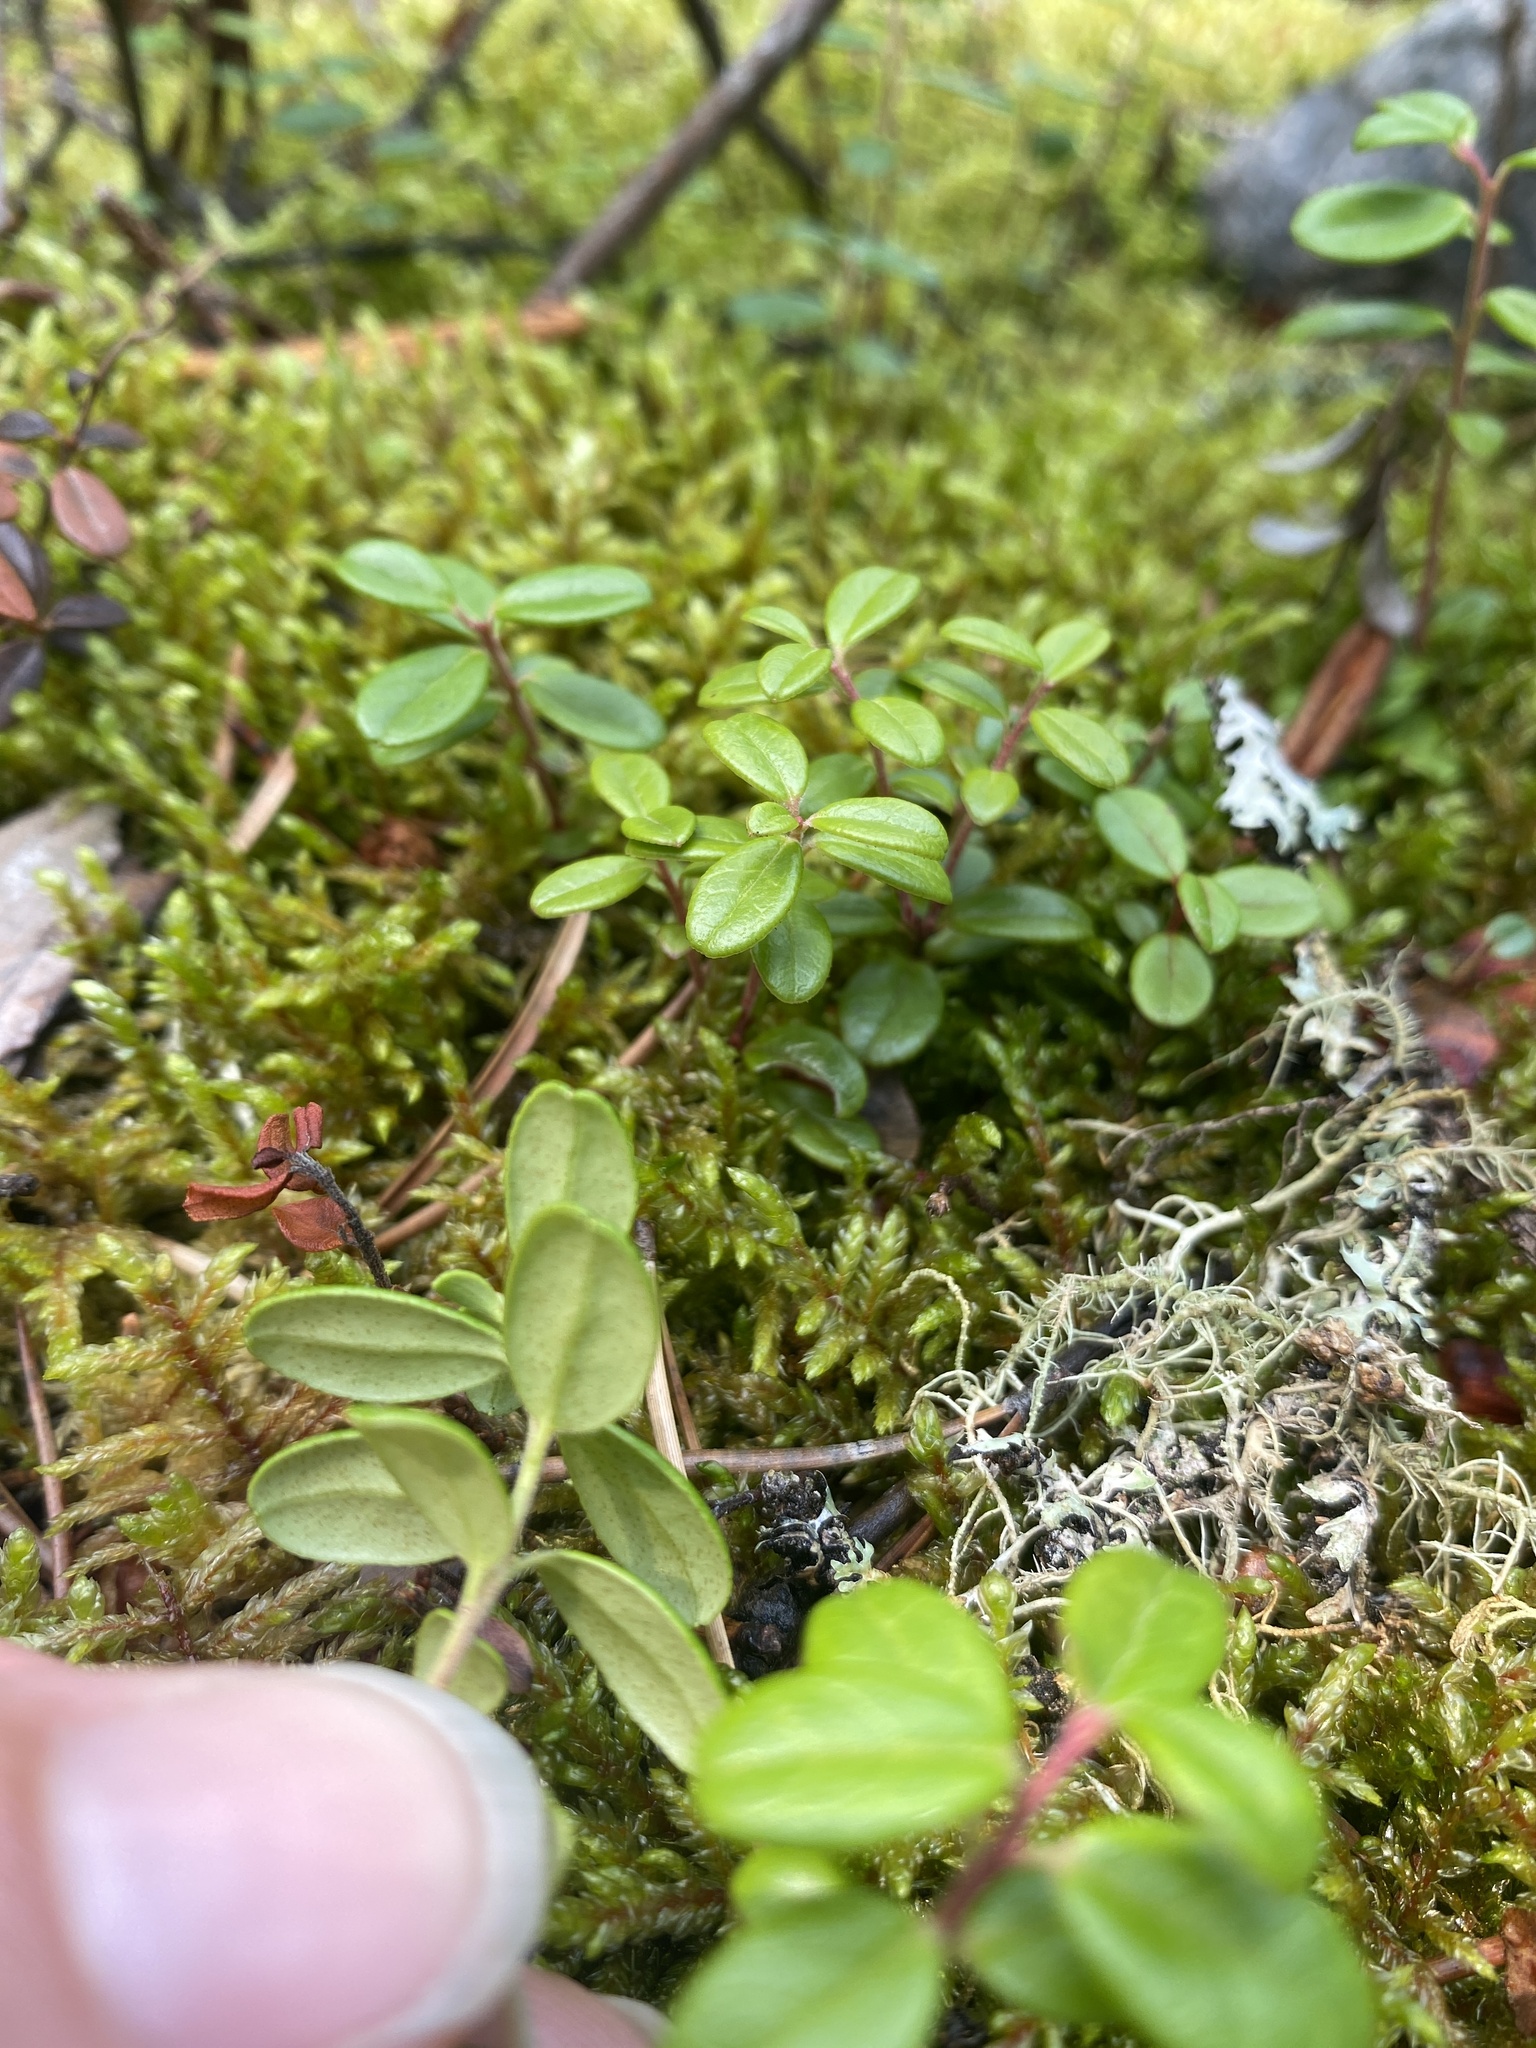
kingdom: Plantae
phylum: Tracheophyta
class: Magnoliopsida
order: Ericales
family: Ericaceae
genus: Vaccinium
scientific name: Vaccinium vitis-idaea
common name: Cowberry
